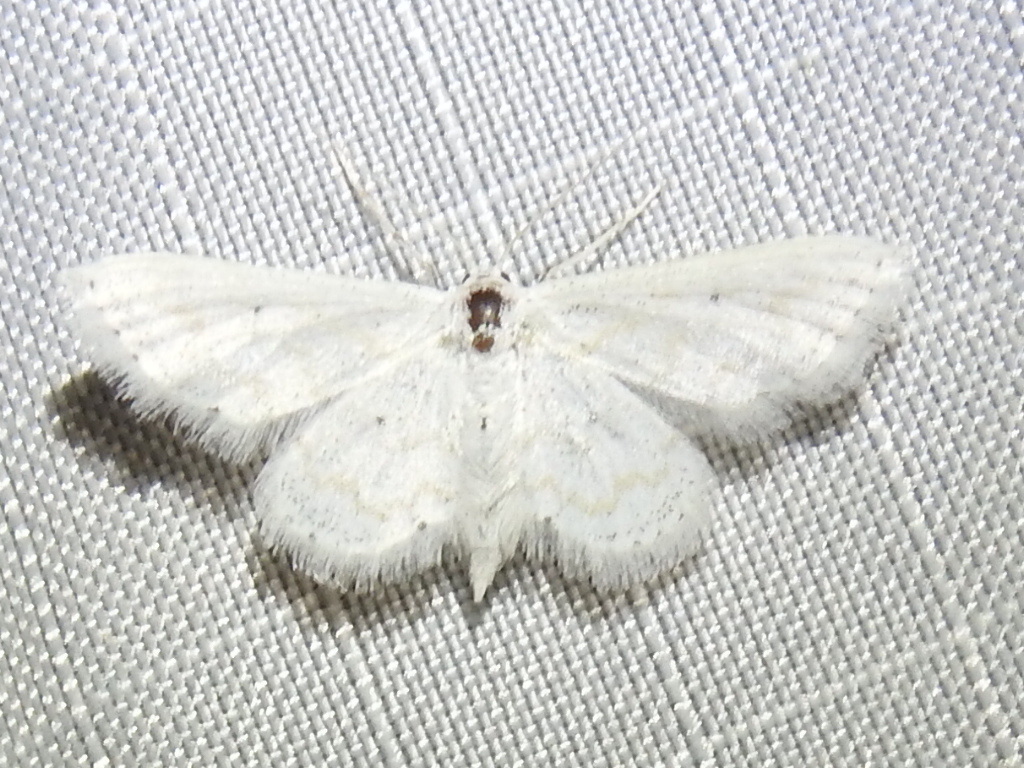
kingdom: Animalia
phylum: Arthropoda
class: Insecta
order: Lepidoptera
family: Geometridae
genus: Lobocleta
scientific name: Lobocleta peralbata
